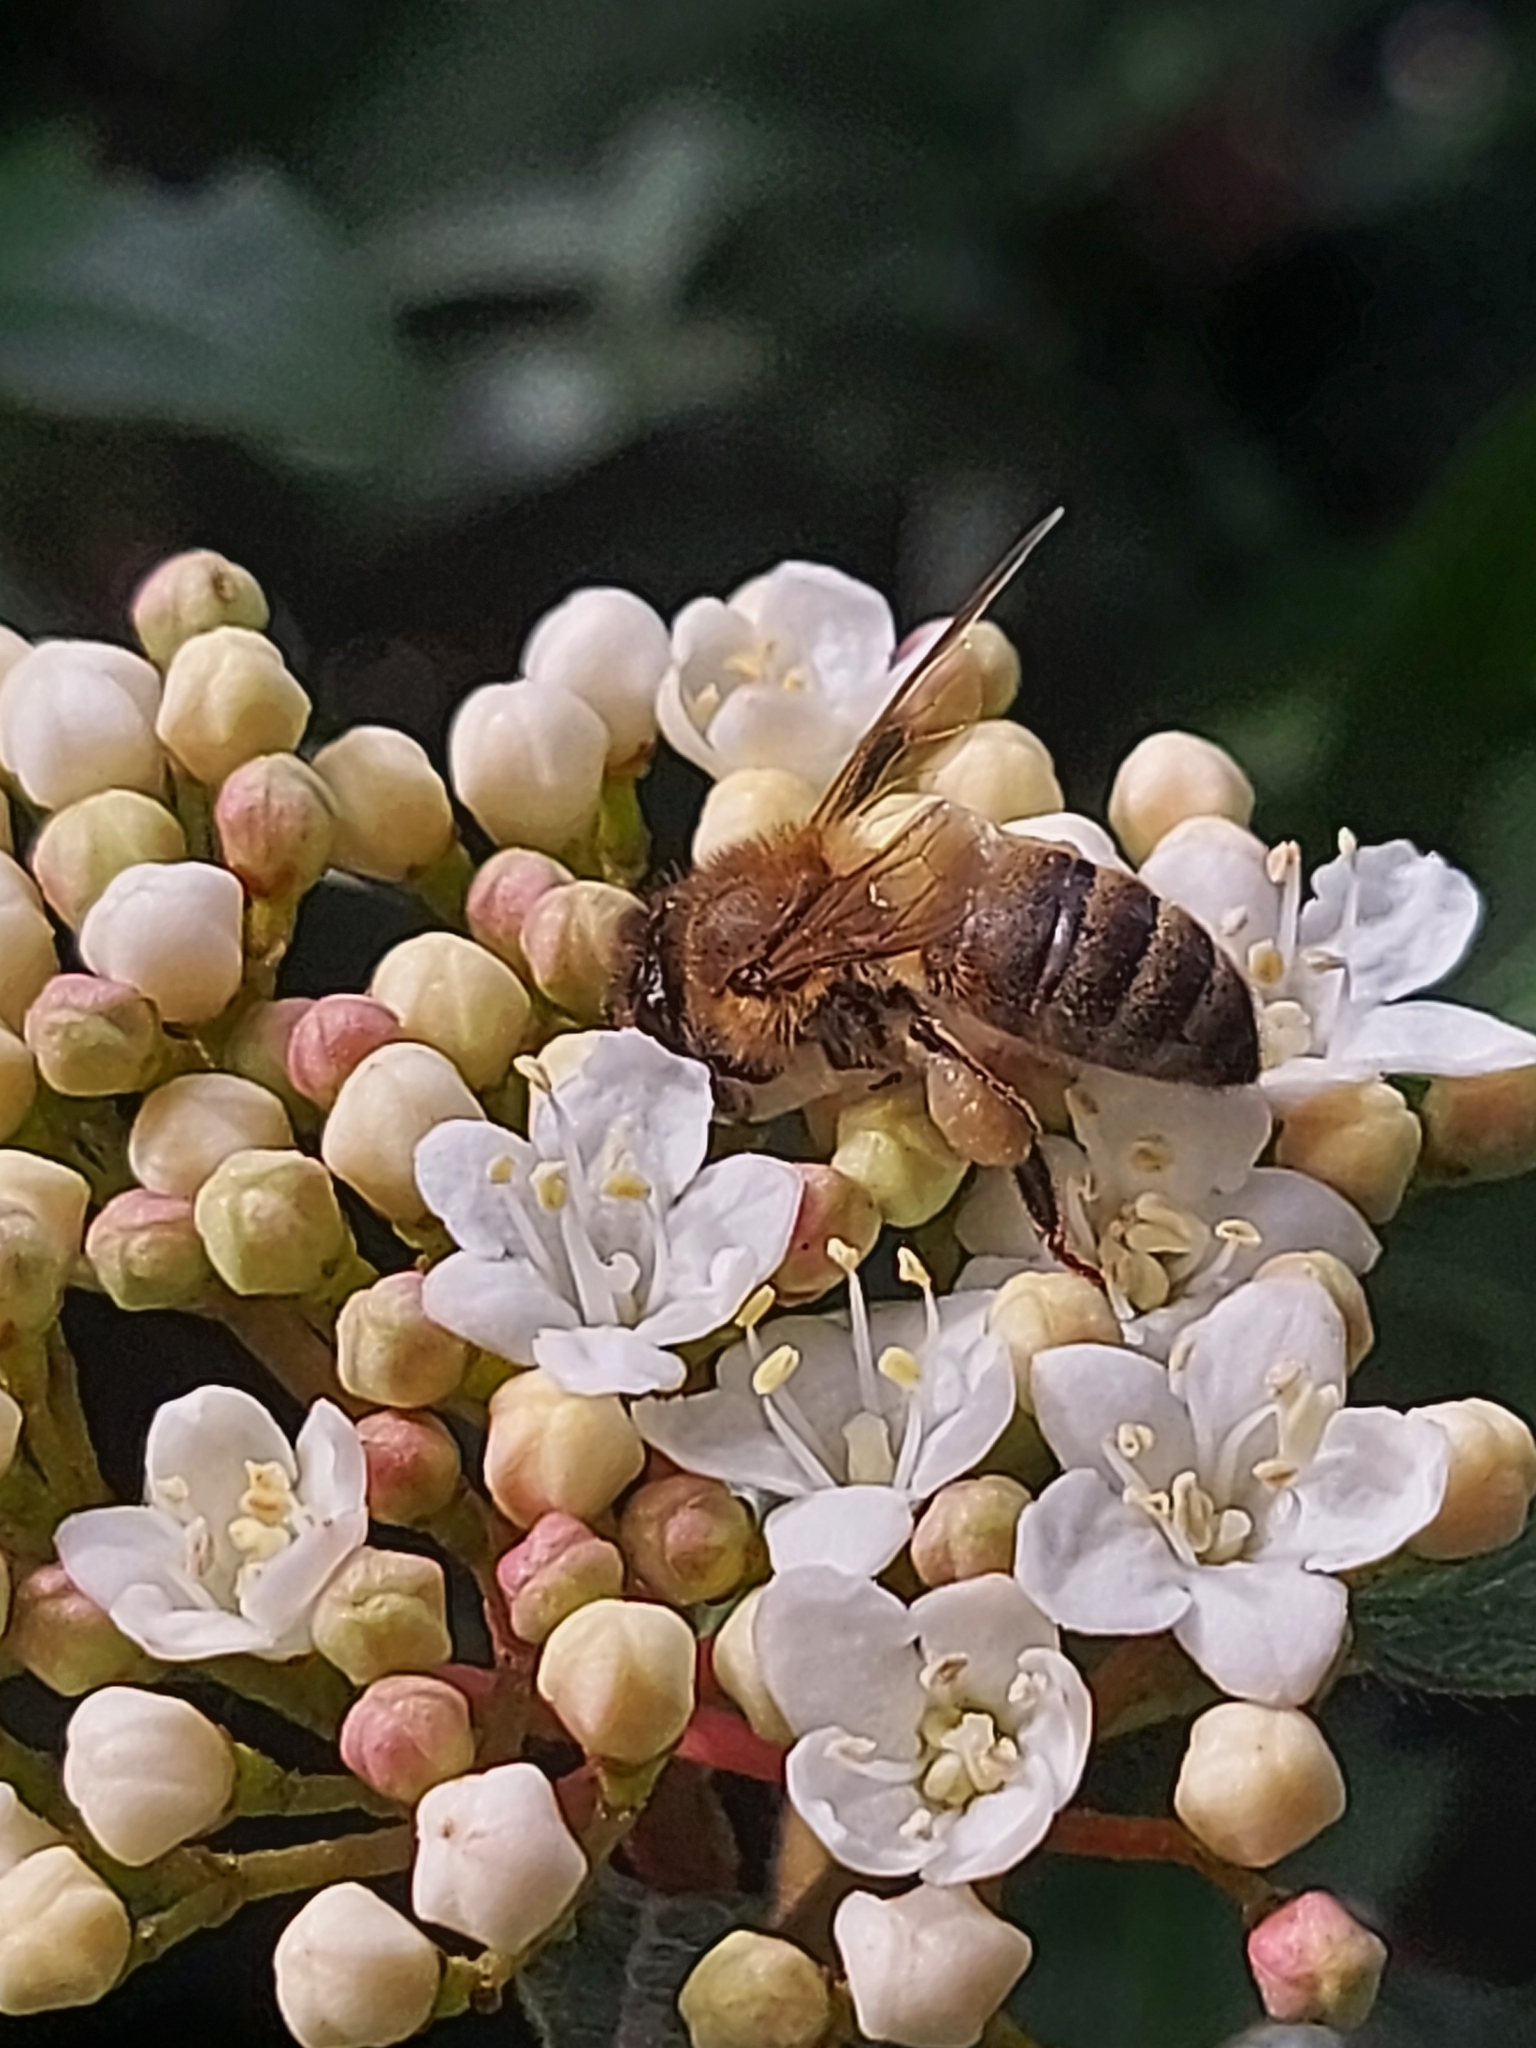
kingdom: Animalia
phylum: Arthropoda
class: Insecta
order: Hymenoptera
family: Apidae
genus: Apis
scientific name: Apis mellifera
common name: Honey bee
